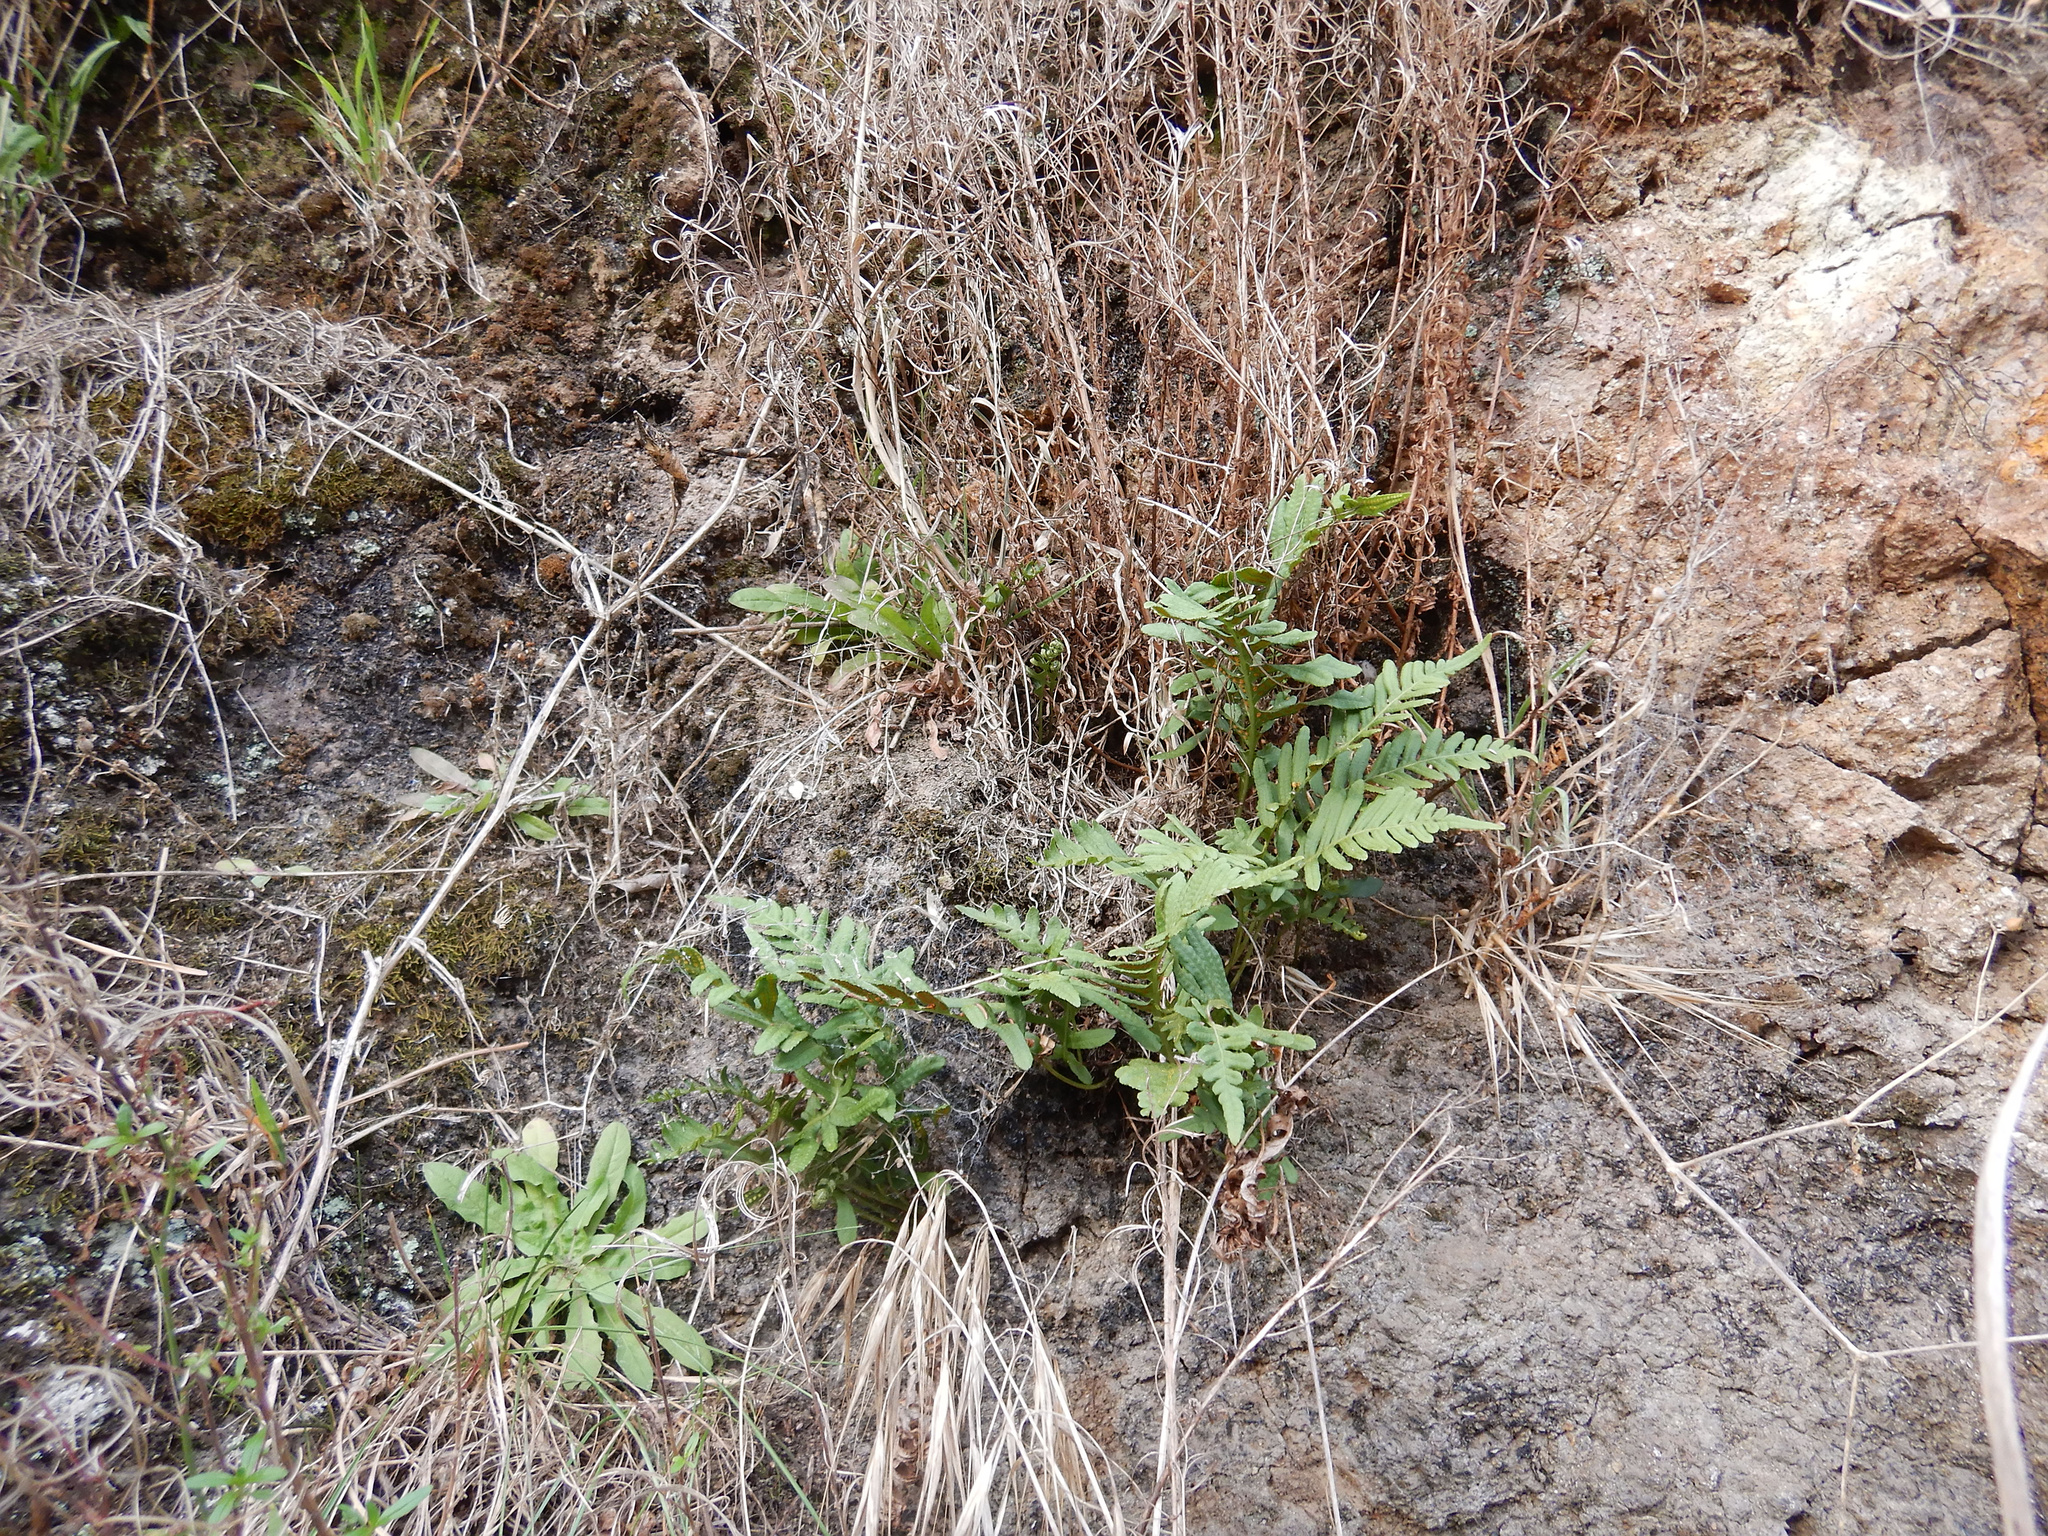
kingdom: Plantae
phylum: Tracheophyta
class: Polypodiopsida
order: Polypodiales
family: Polypodiaceae
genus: Polypodium
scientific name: Polypodium vulgare
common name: Common polypody
